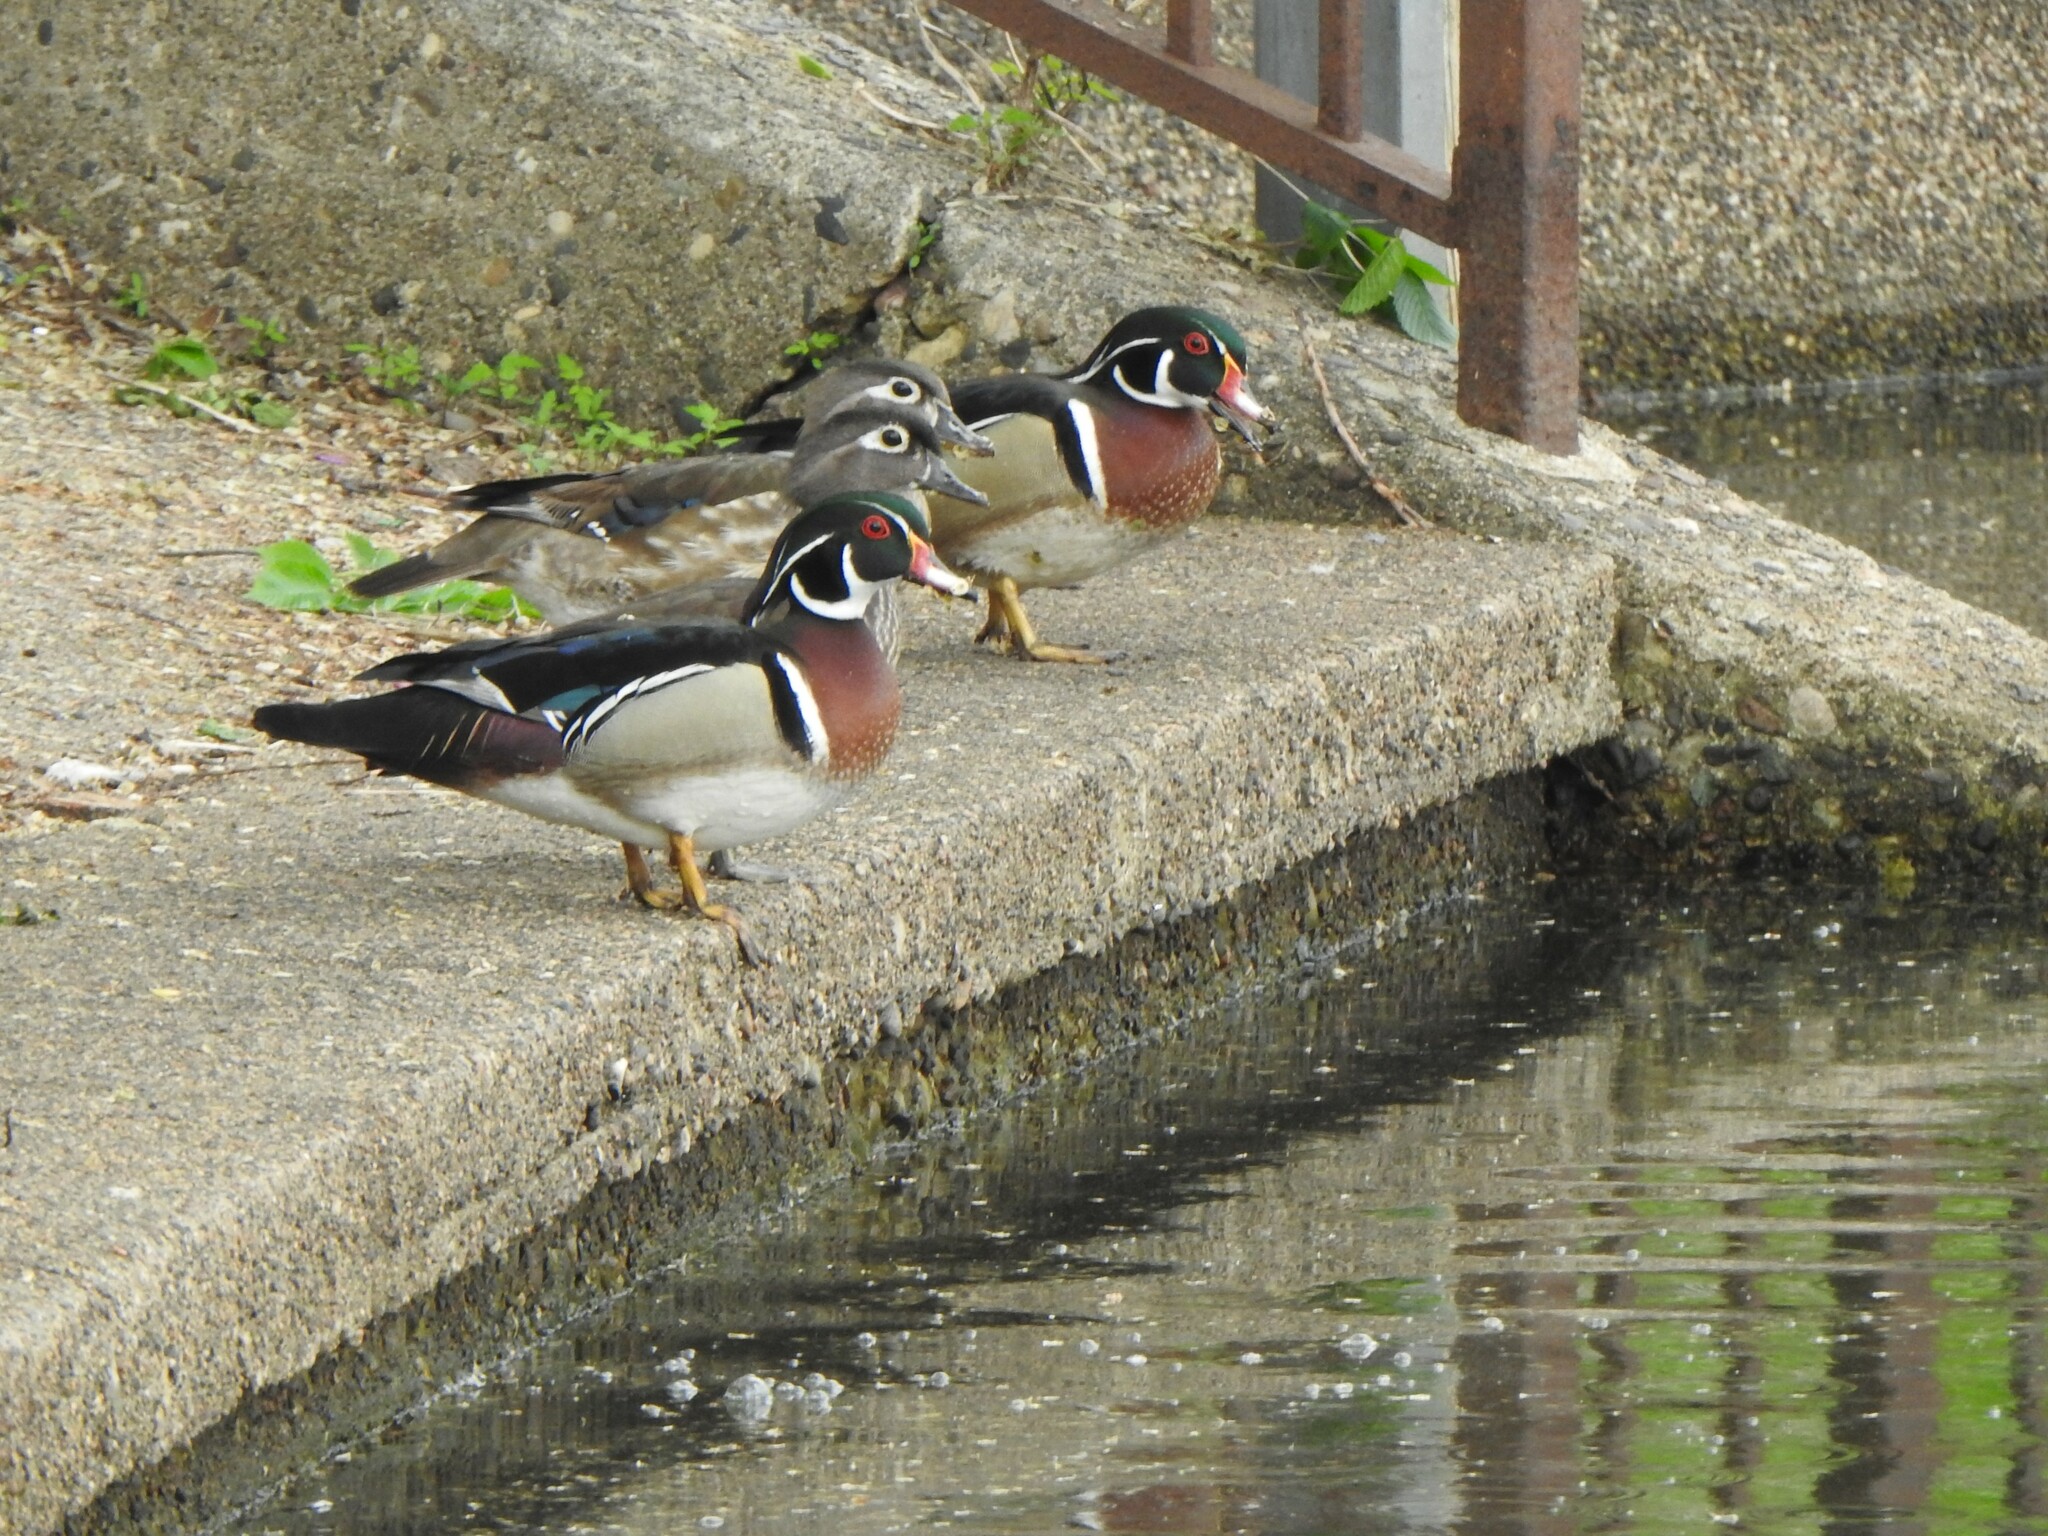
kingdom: Animalia
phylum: Chordata
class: Aves
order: Anseriformes
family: Anatidae
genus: Aix
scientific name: Aix sponsa
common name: Wood duck
